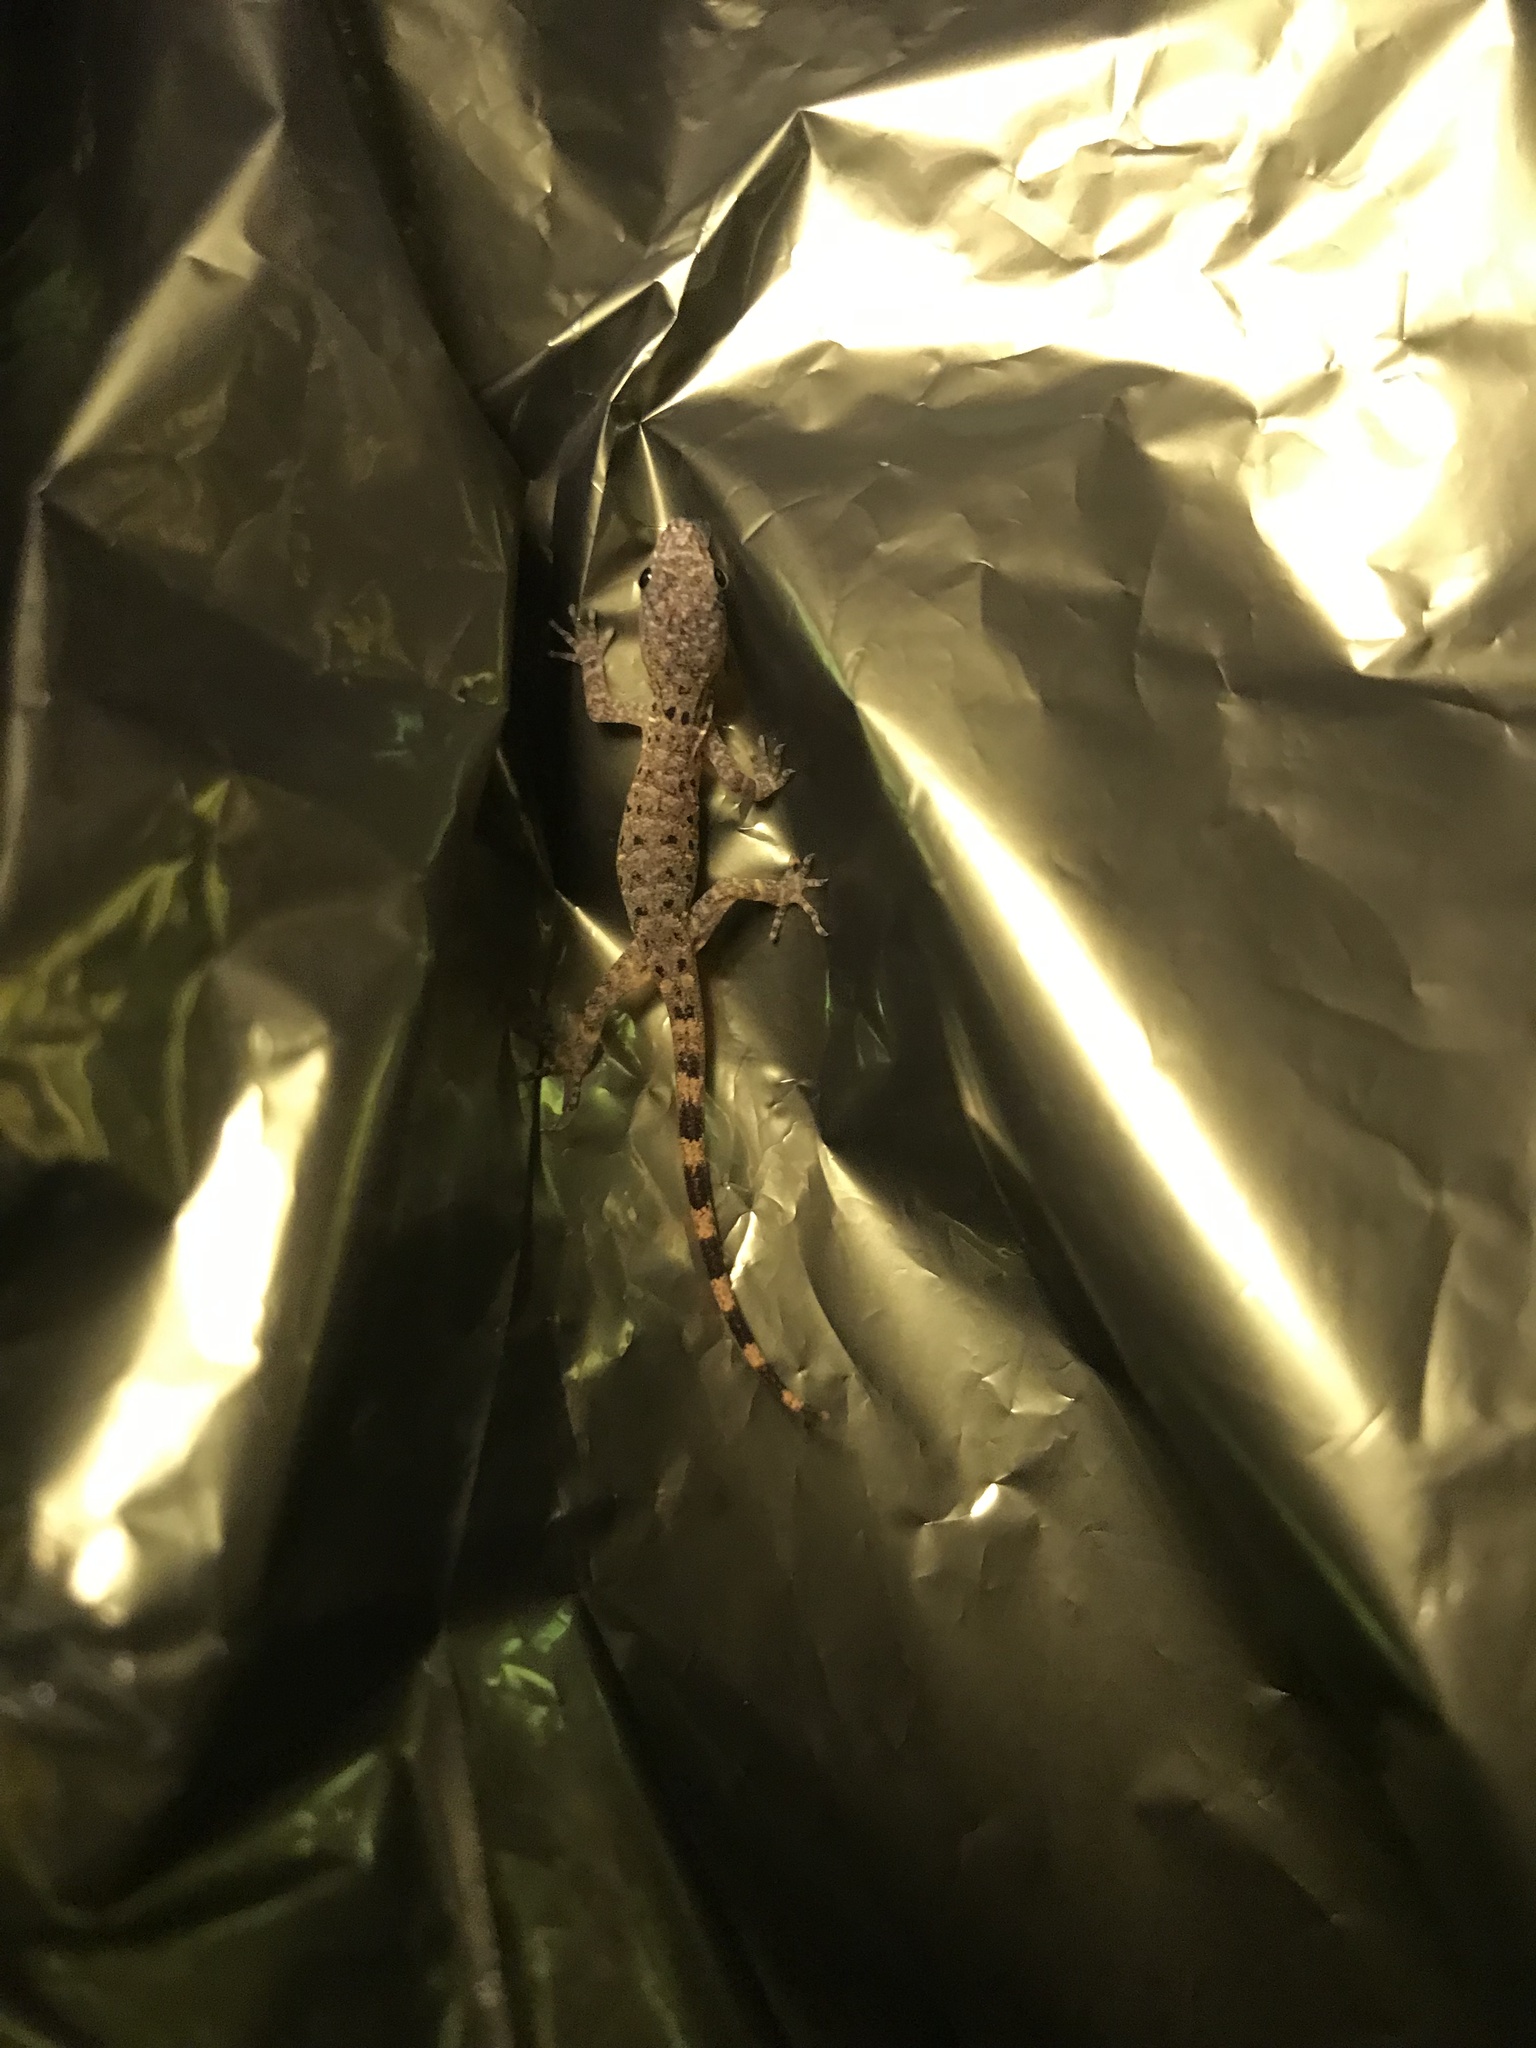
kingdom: Animalia
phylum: Chordata
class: Squamata
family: Sphaerodactylidae
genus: Gonatodes
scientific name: Gonatodes humeralis
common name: South american clawed gecko
